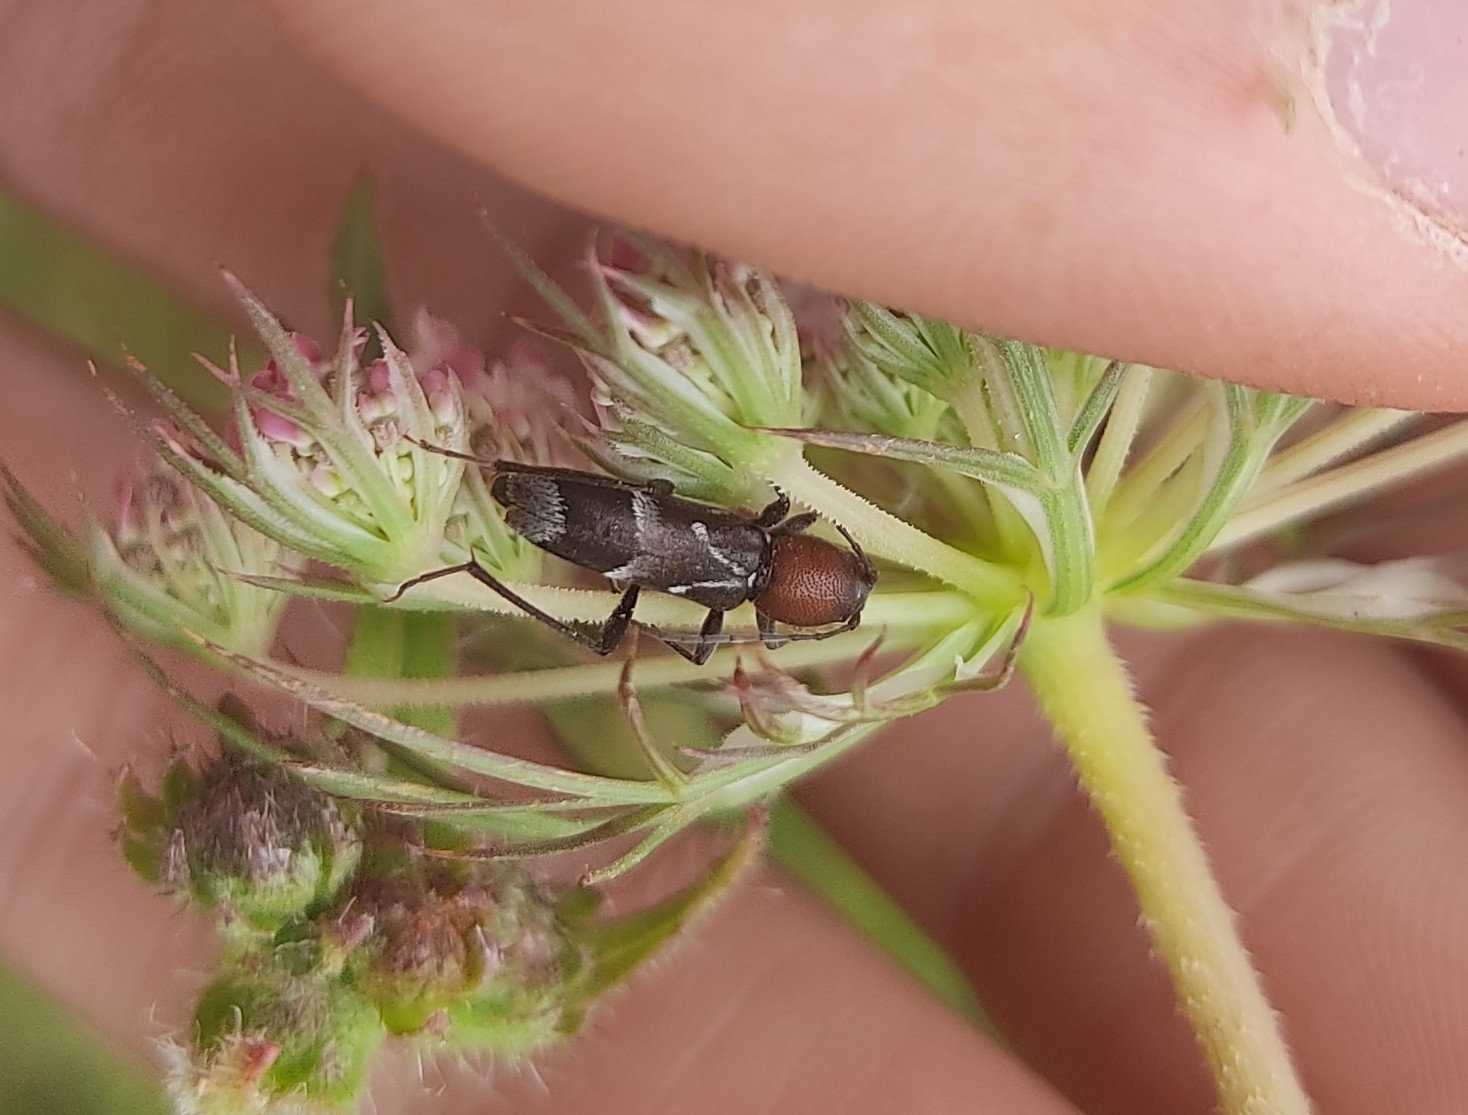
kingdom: Animalia
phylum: Arthropoda
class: Insecta
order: Coleoptera
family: Cerambycidae
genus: Chlorophorus
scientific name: Chlorophorus ruficornis
